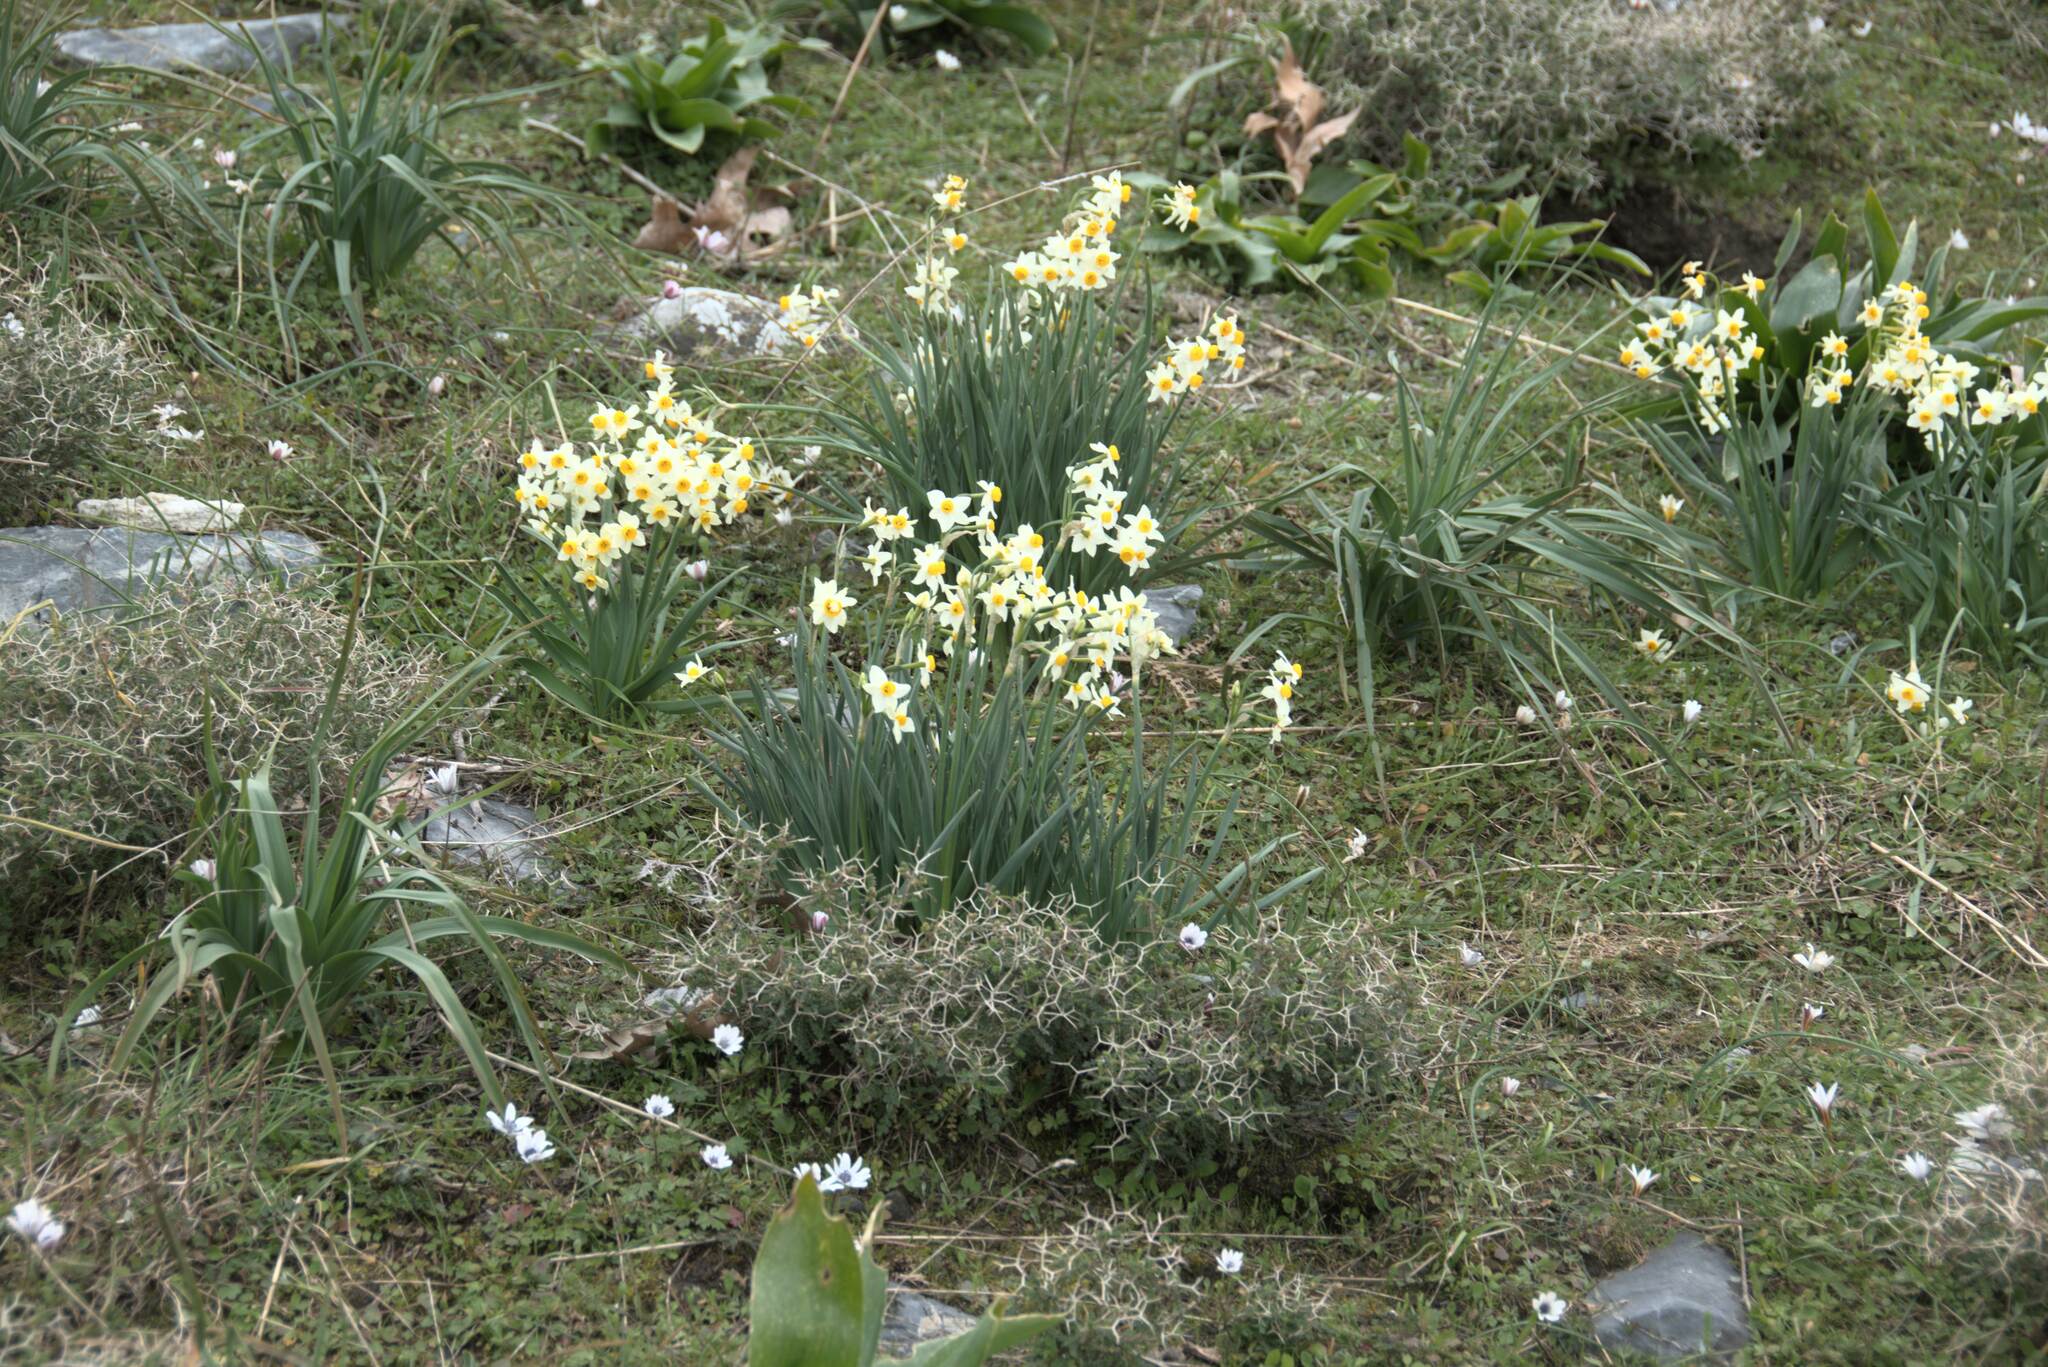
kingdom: Plantae
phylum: Tracheophyta
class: Liliopsida
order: Asparagales
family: Amaryllidaceae
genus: Narcissus
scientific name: Narcissus tazetta
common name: Bunch-flowered daffodil
